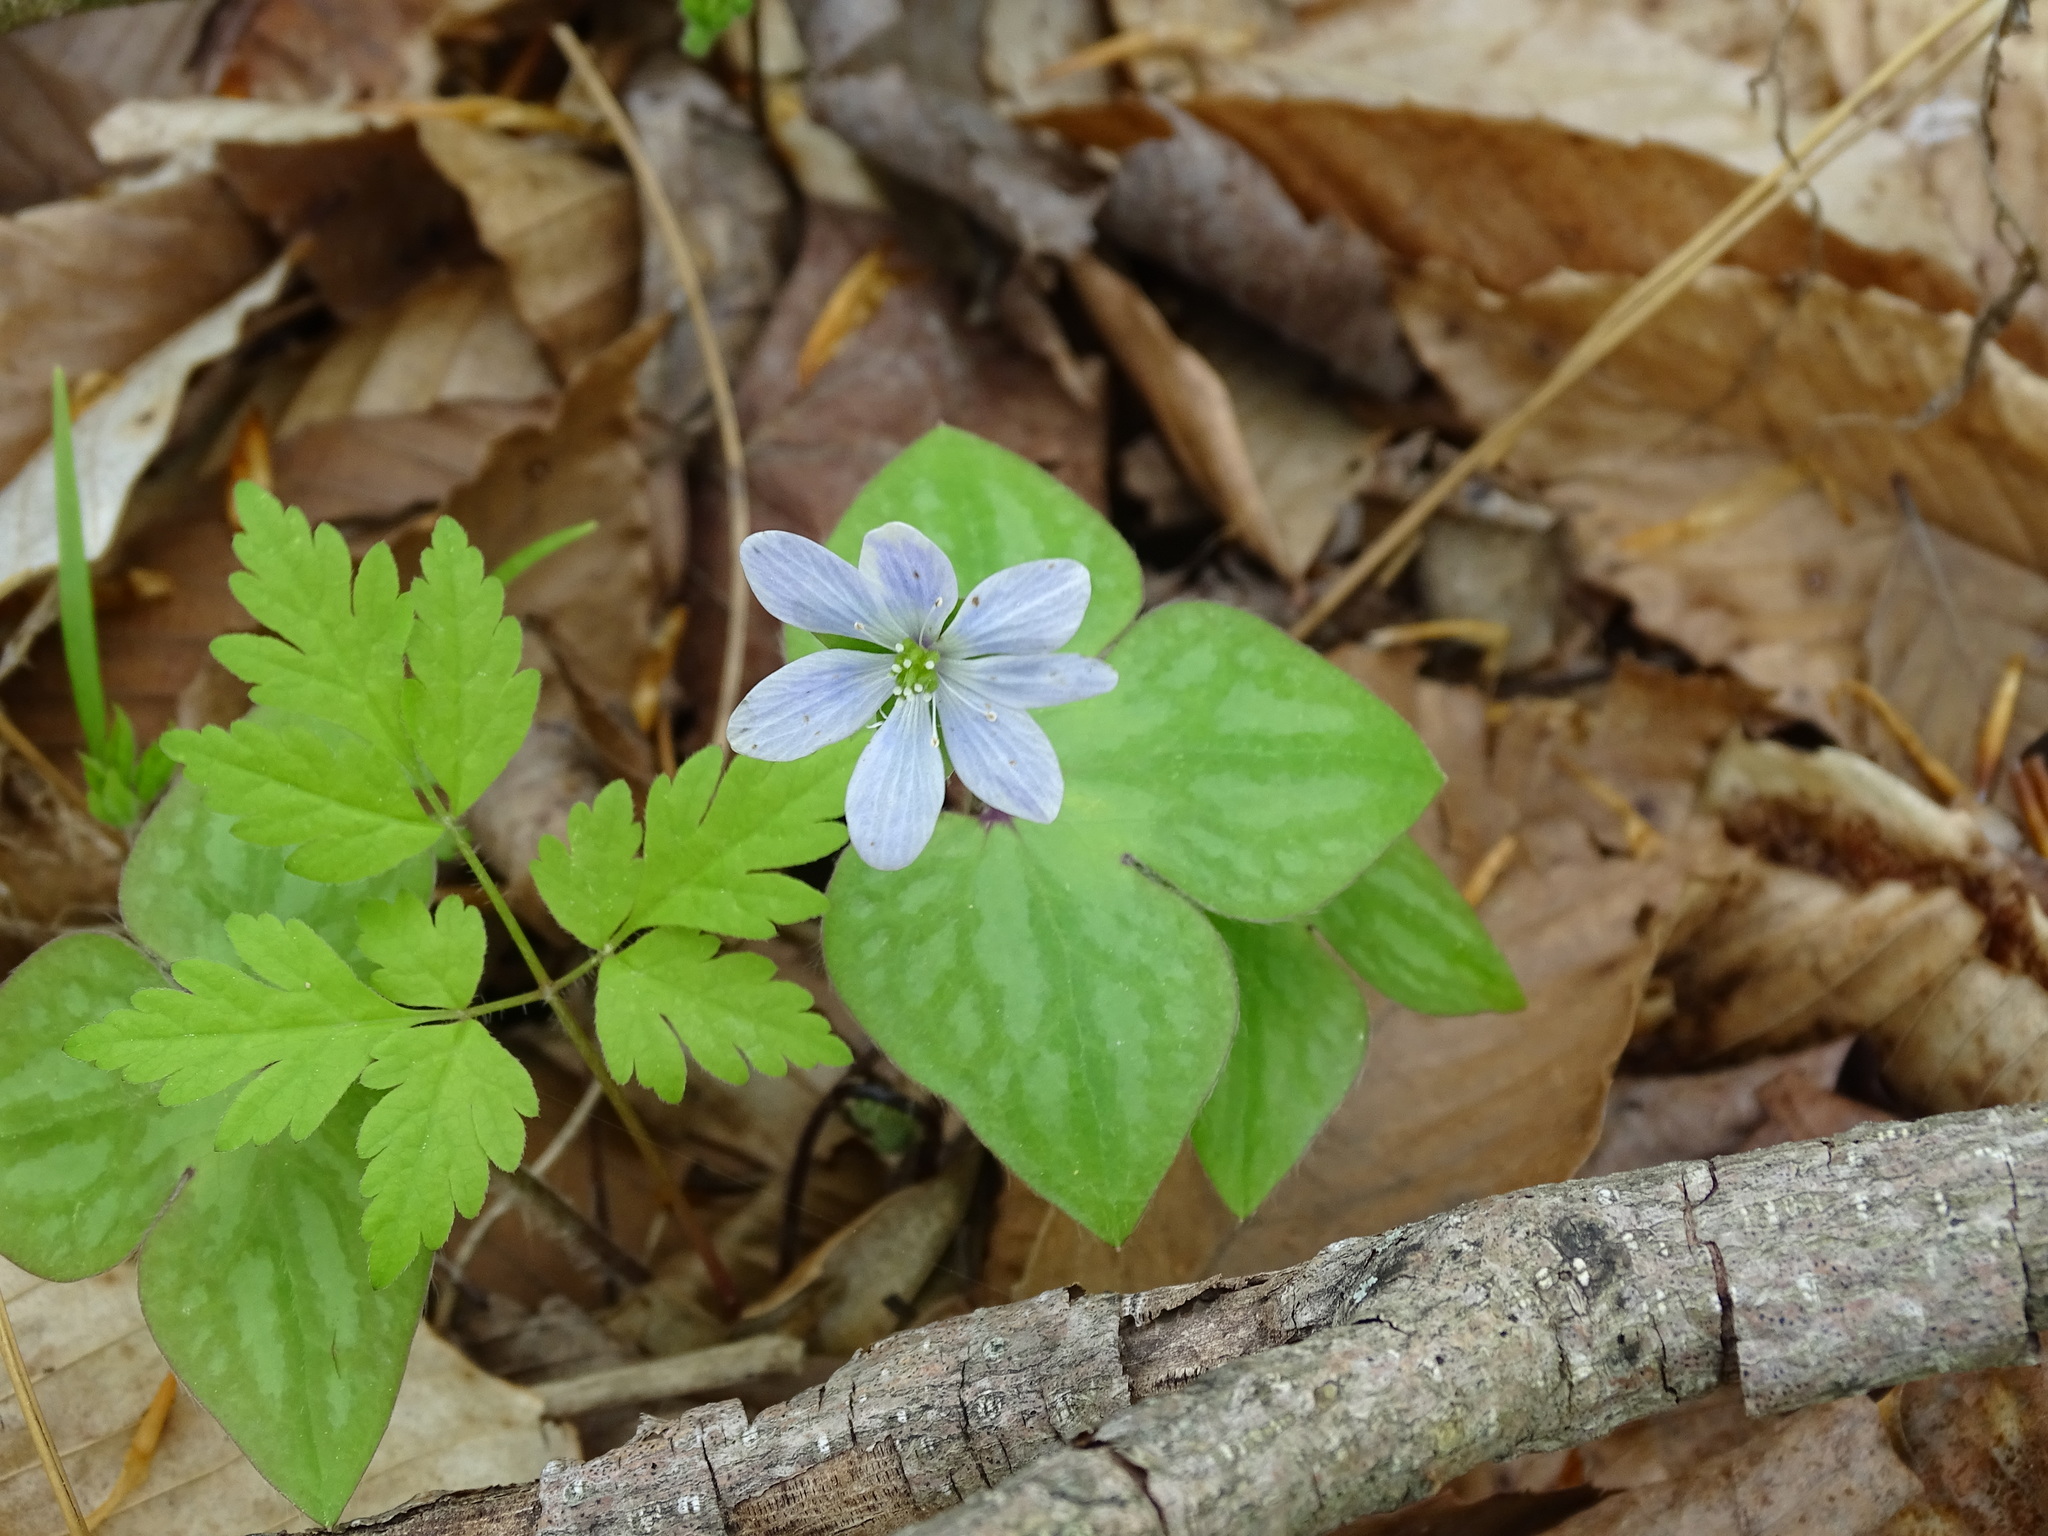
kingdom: Plantae
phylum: Tracheophyta
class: Magnoliopsida
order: Ranunculales
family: Ranunculaceae
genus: Hepatica
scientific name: Hepatica acutiloba
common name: Sharp-lobed hepatica
